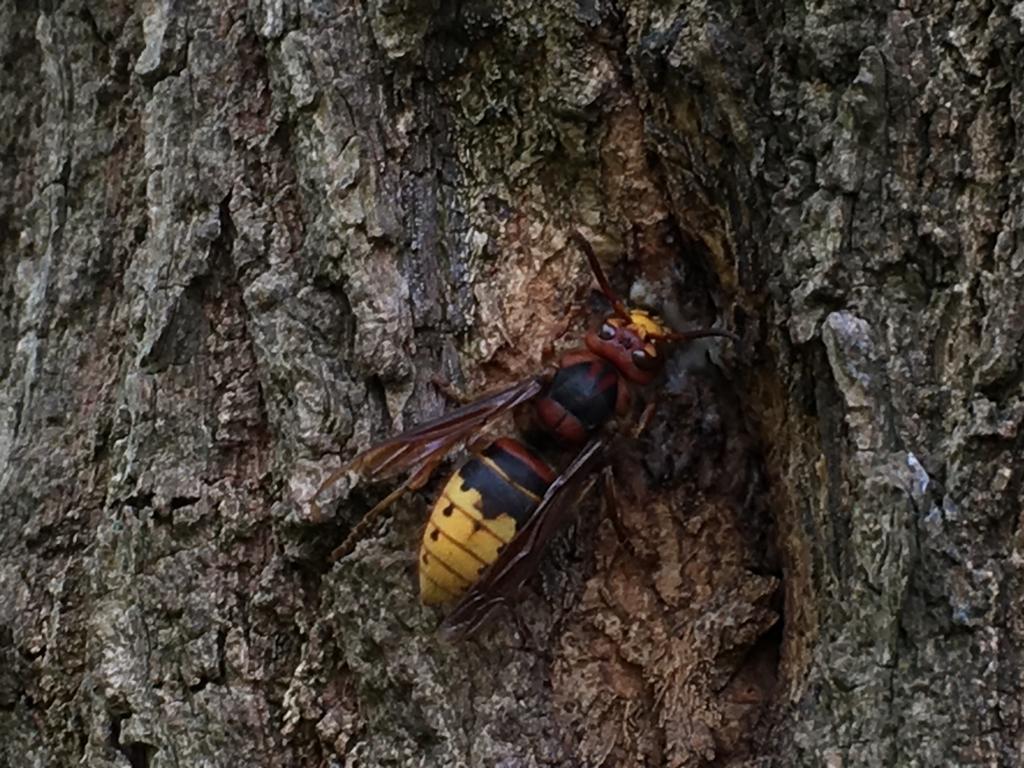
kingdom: Animalia
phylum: Arthropoda
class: Insecta
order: Hymenoptera
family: Vespidae
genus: Vespa
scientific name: Vespa crabro
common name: Hornet
